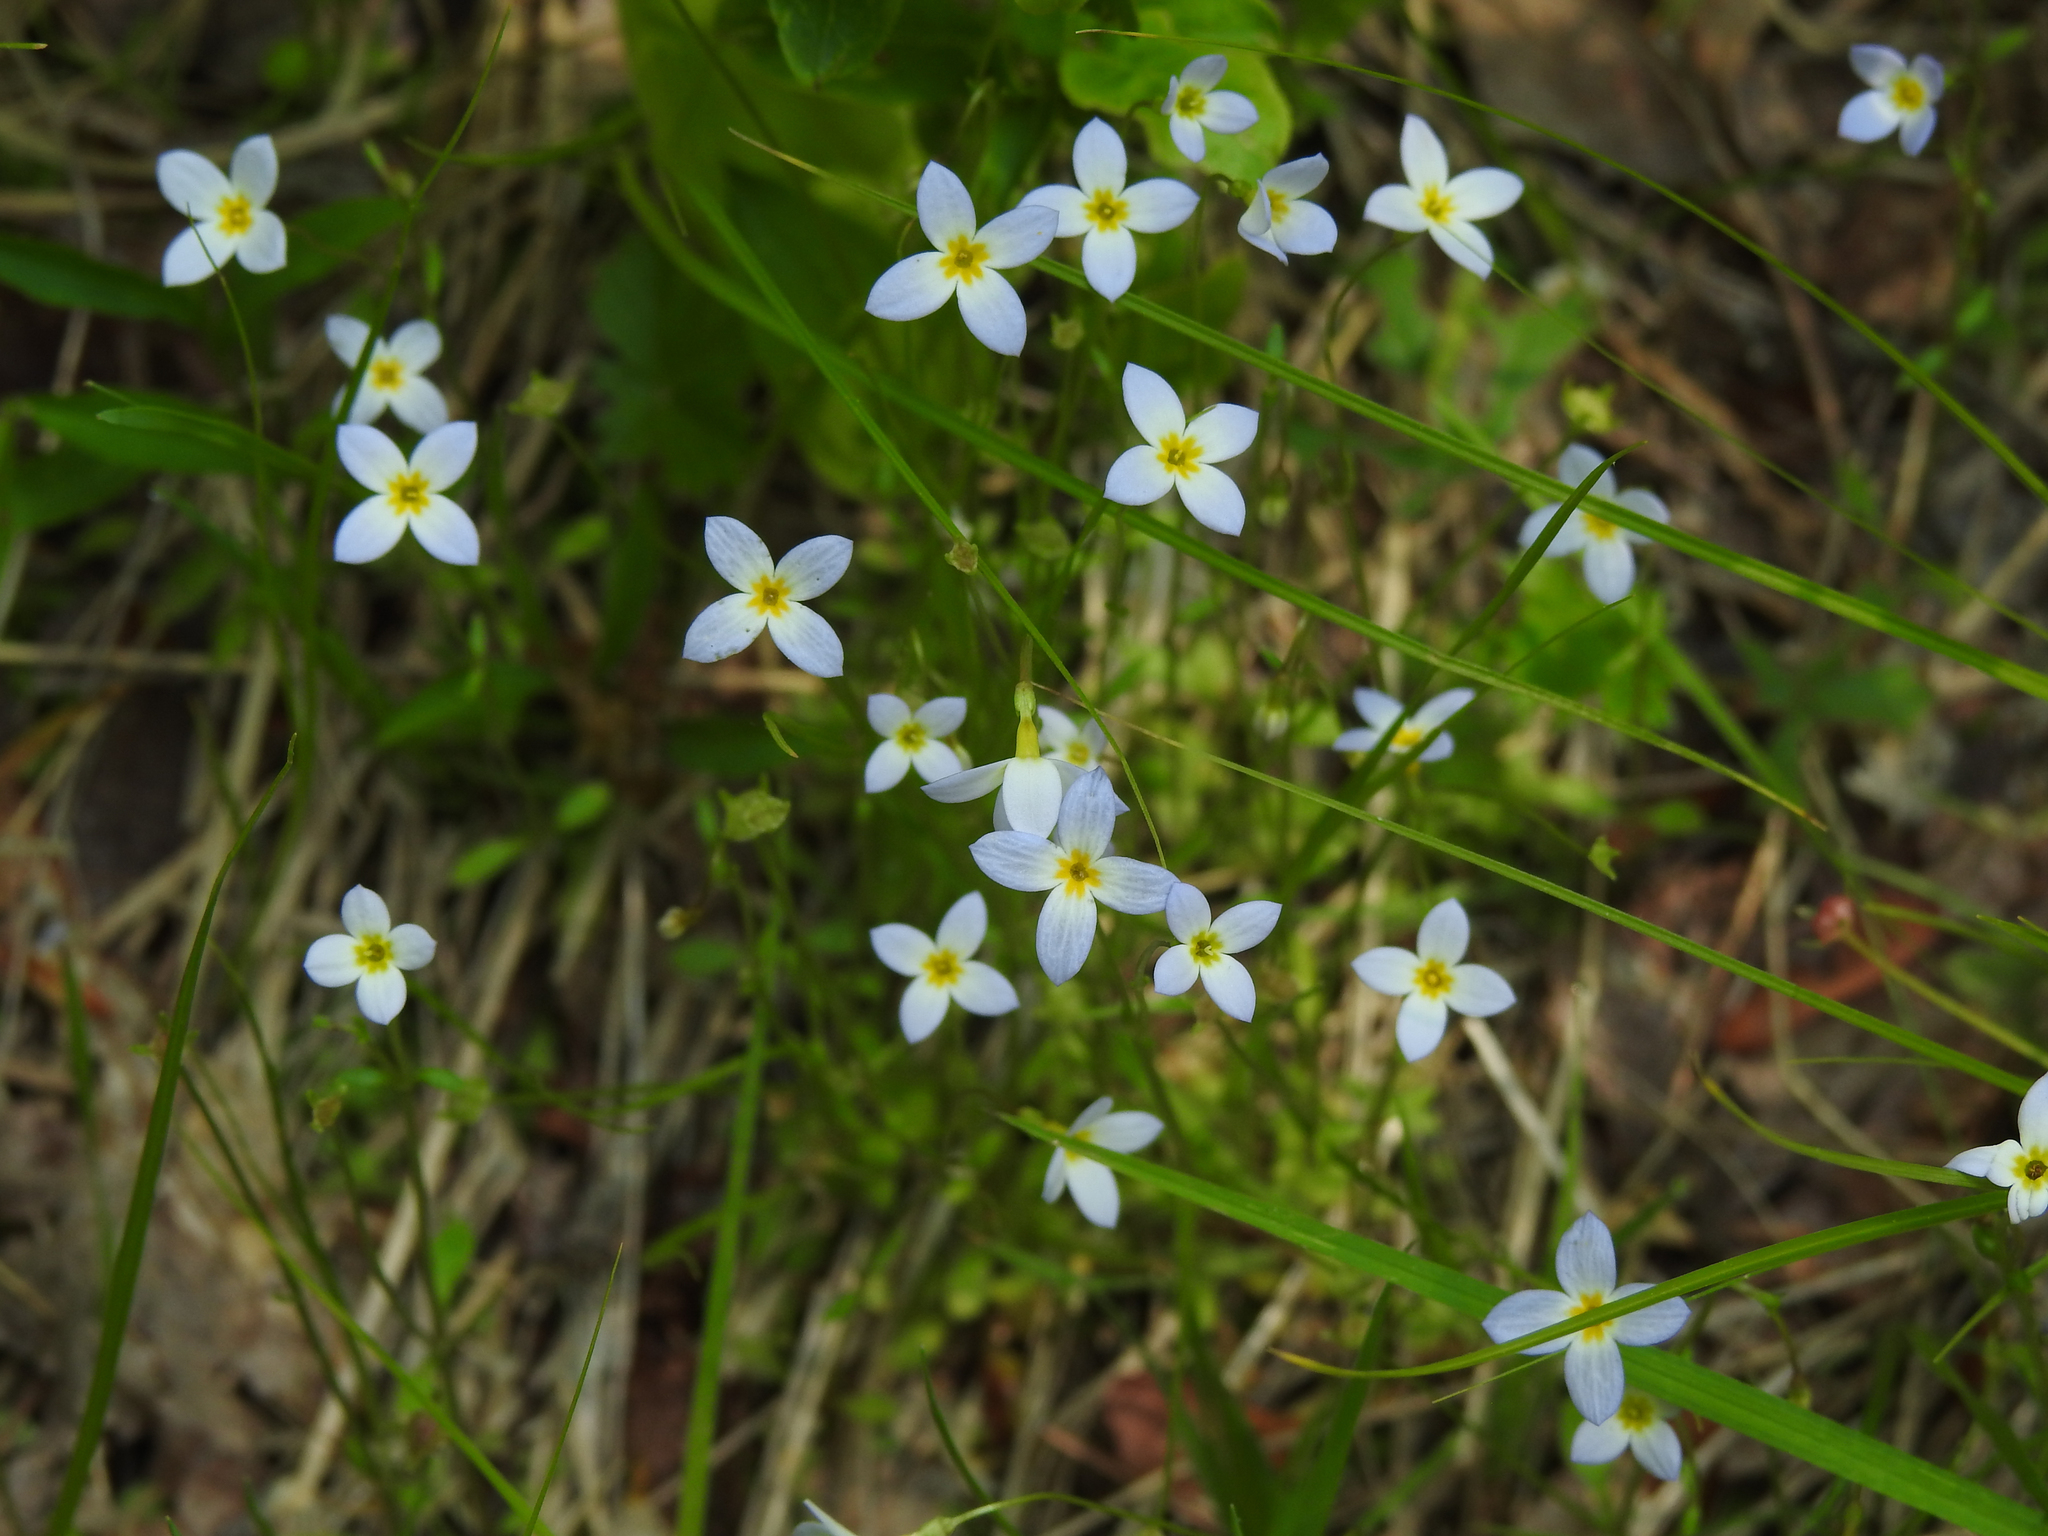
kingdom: Plantae
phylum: Tracheophyta
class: Magnoliopsida
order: Gentianales
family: Rubiaceae
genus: Houstonia
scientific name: Houstonia caerulea
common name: Bluets
